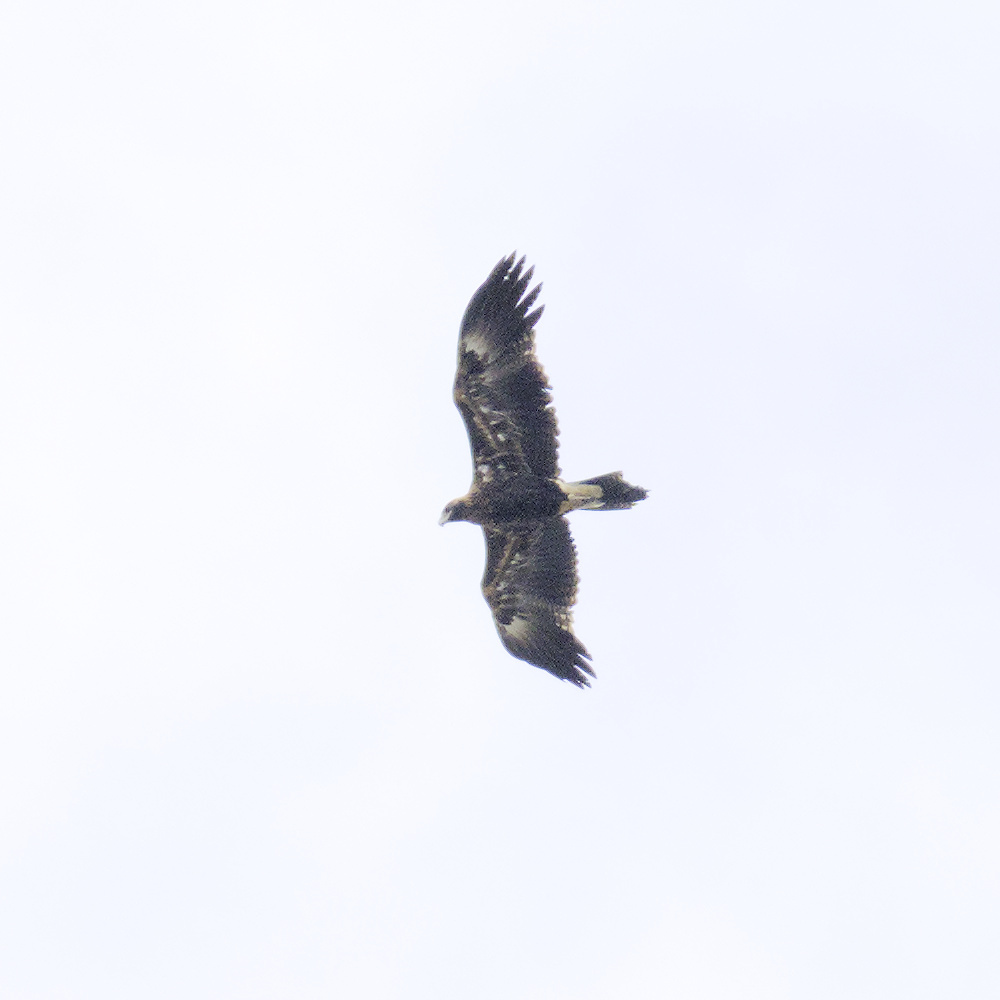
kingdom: Animalia
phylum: Chordata
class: Aves
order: Accipitriformes
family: Accipitridae
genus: Aquila
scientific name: Aquila audax
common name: Wedge-tailed eagle
